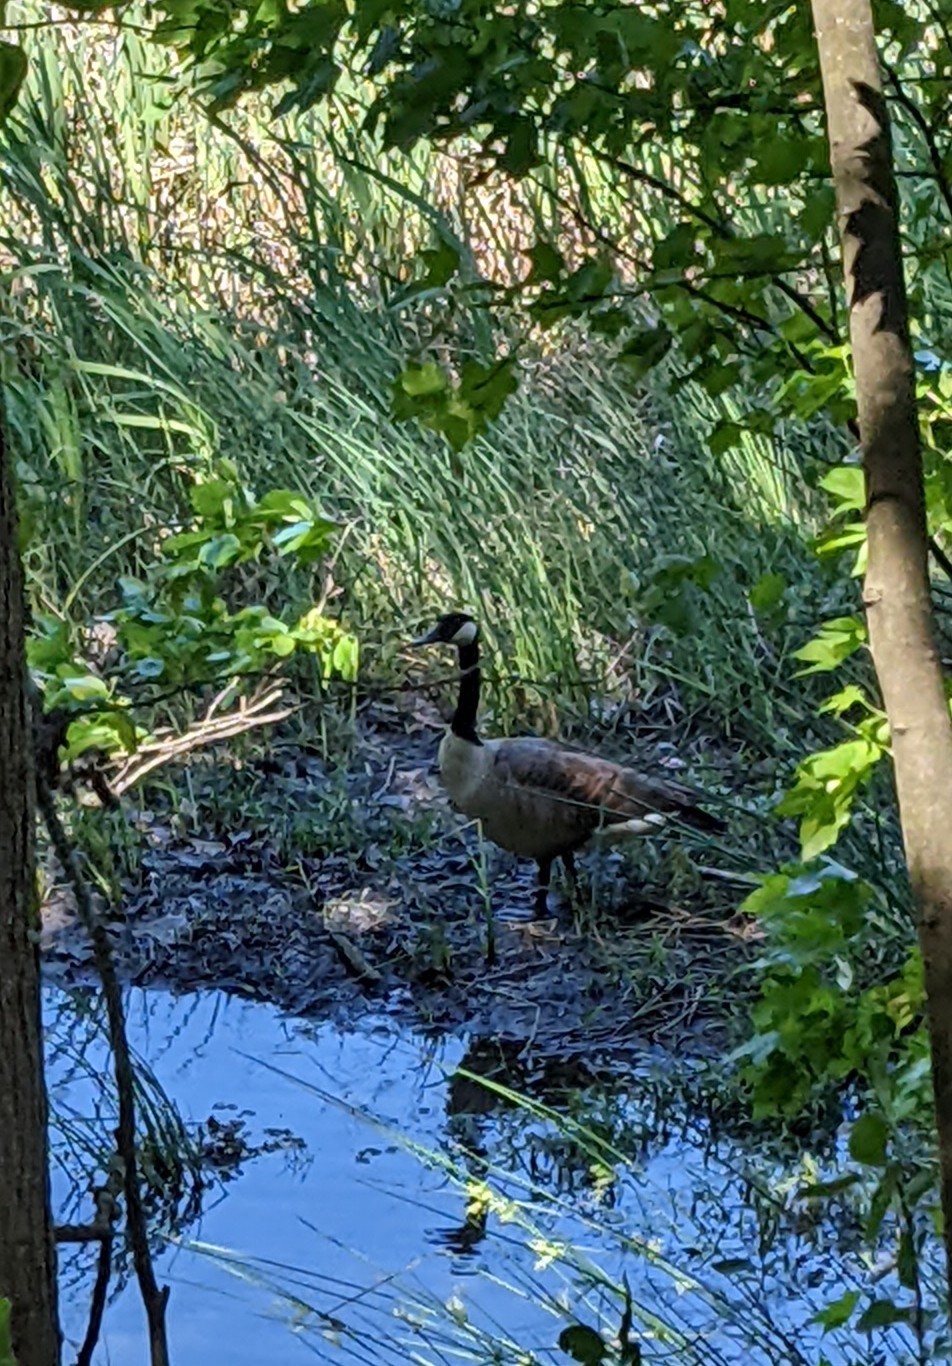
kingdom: Animalia
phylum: Chordata
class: Aves
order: Anseriformes
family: Anatidae
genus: Branta
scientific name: Branta canadensis
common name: Canada goose
